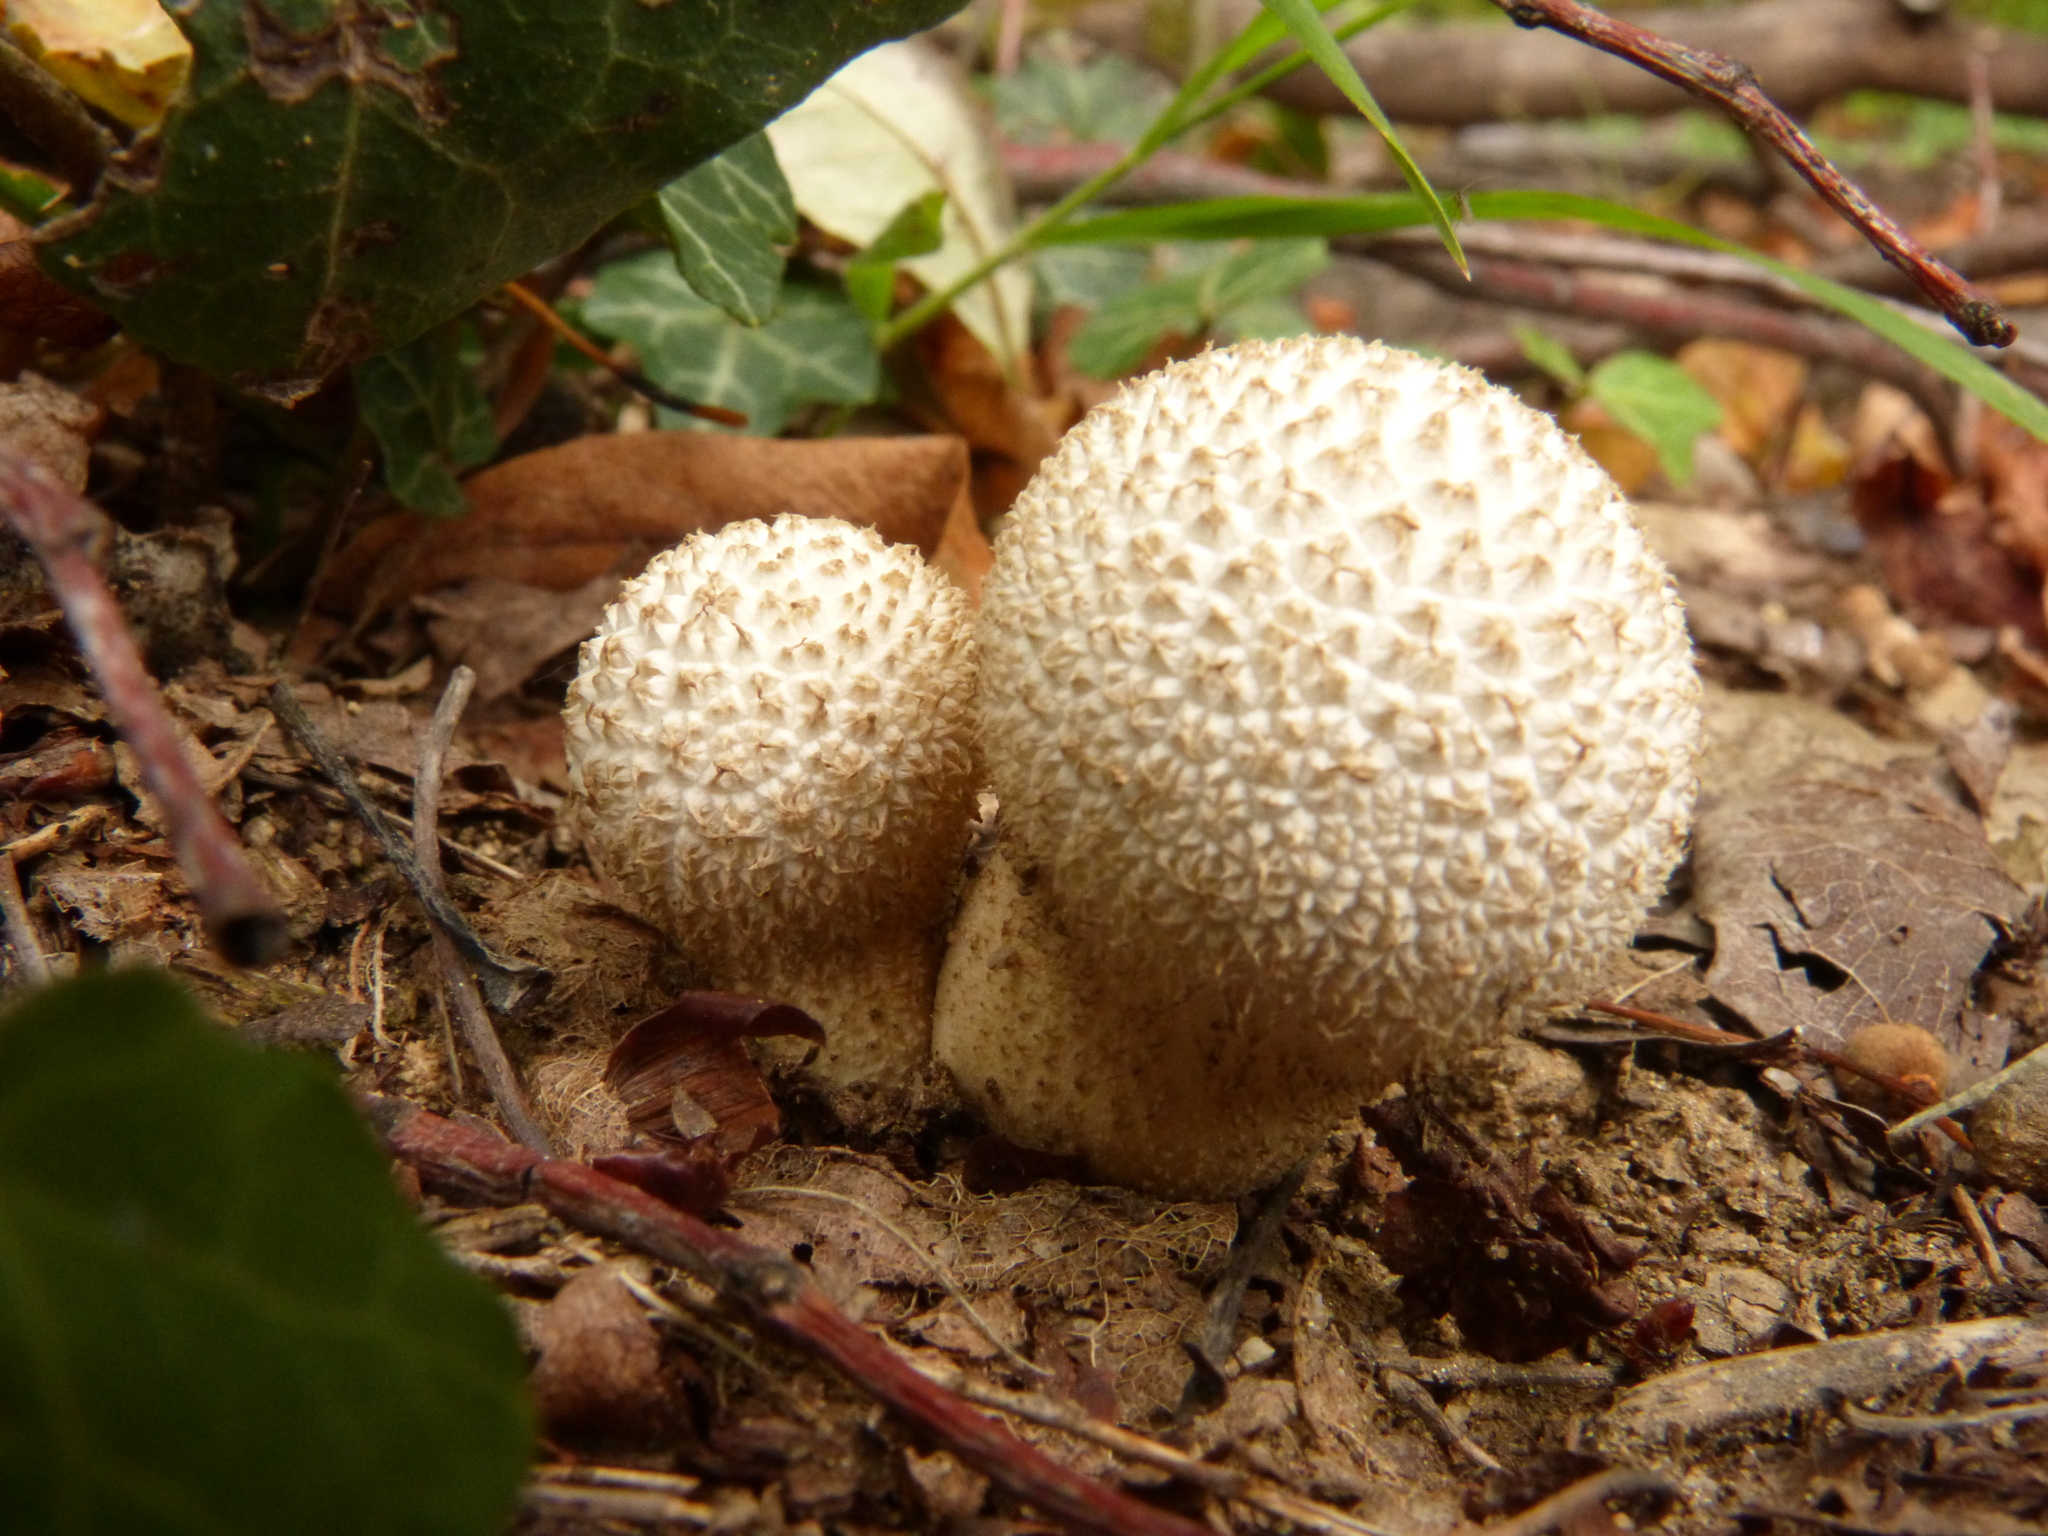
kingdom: Fungi
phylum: Basidiomycota
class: Agaricomycetes
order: Agaricales
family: Lycoperdaceae
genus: Lycoperdon
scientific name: Lycoperdon perlatum
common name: Common puffball
